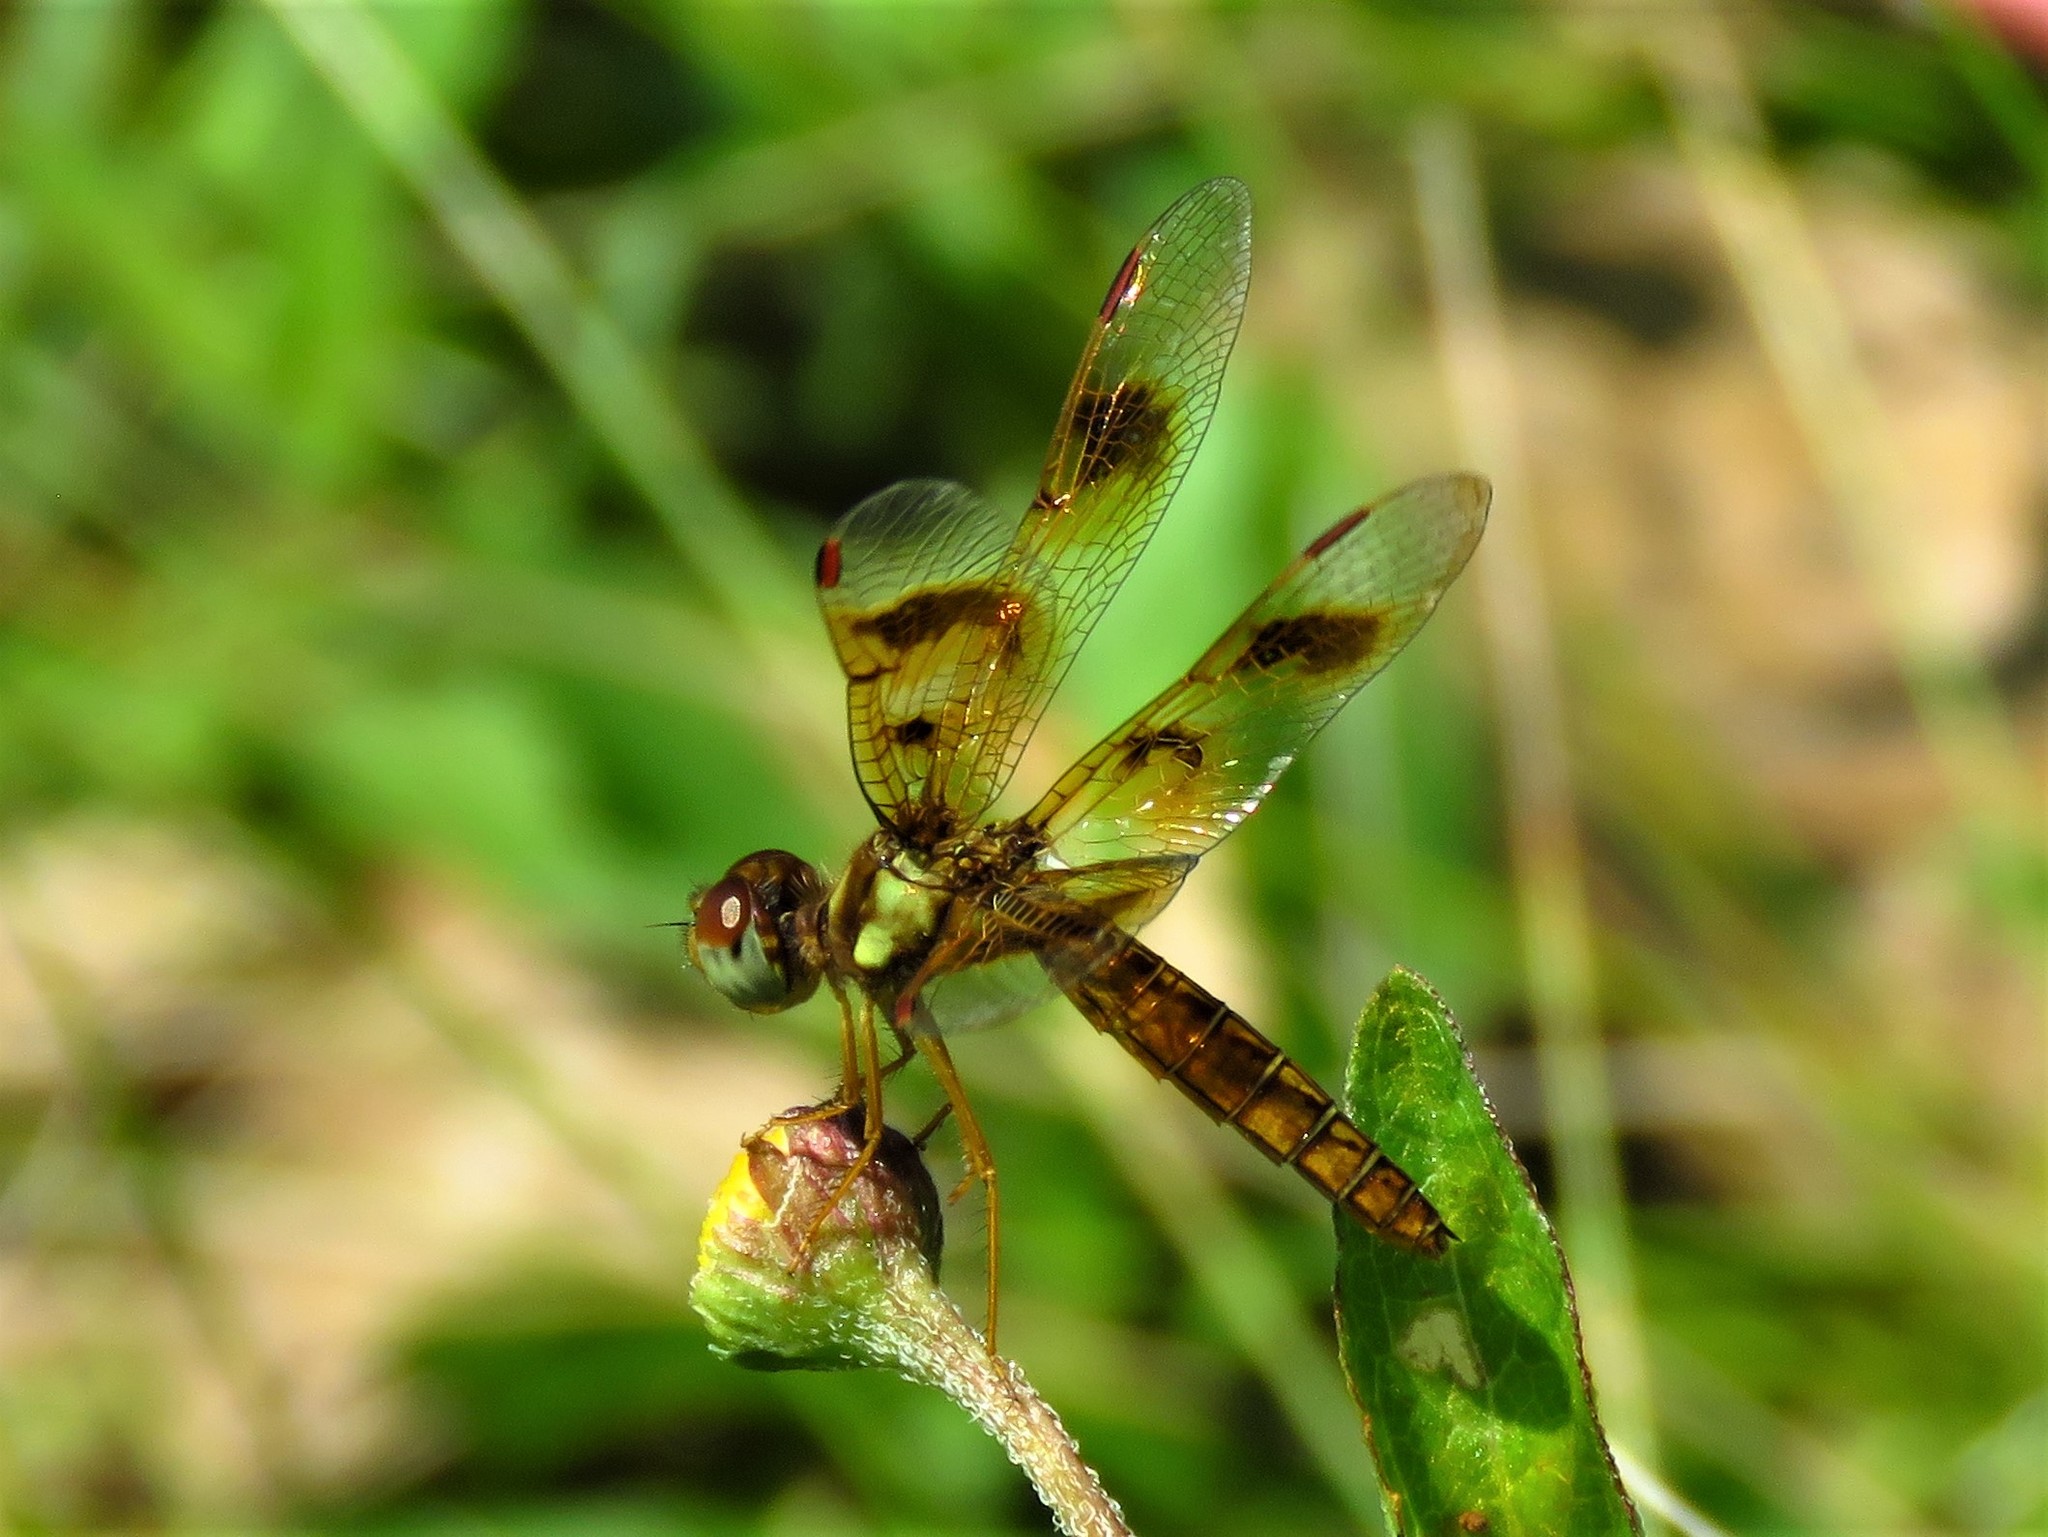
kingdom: Animalia
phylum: Arthropoda
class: Insecta
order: Odonata
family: Libellulidae
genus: Perithemis
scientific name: Perithemis tenera
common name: Eastern amberwing
